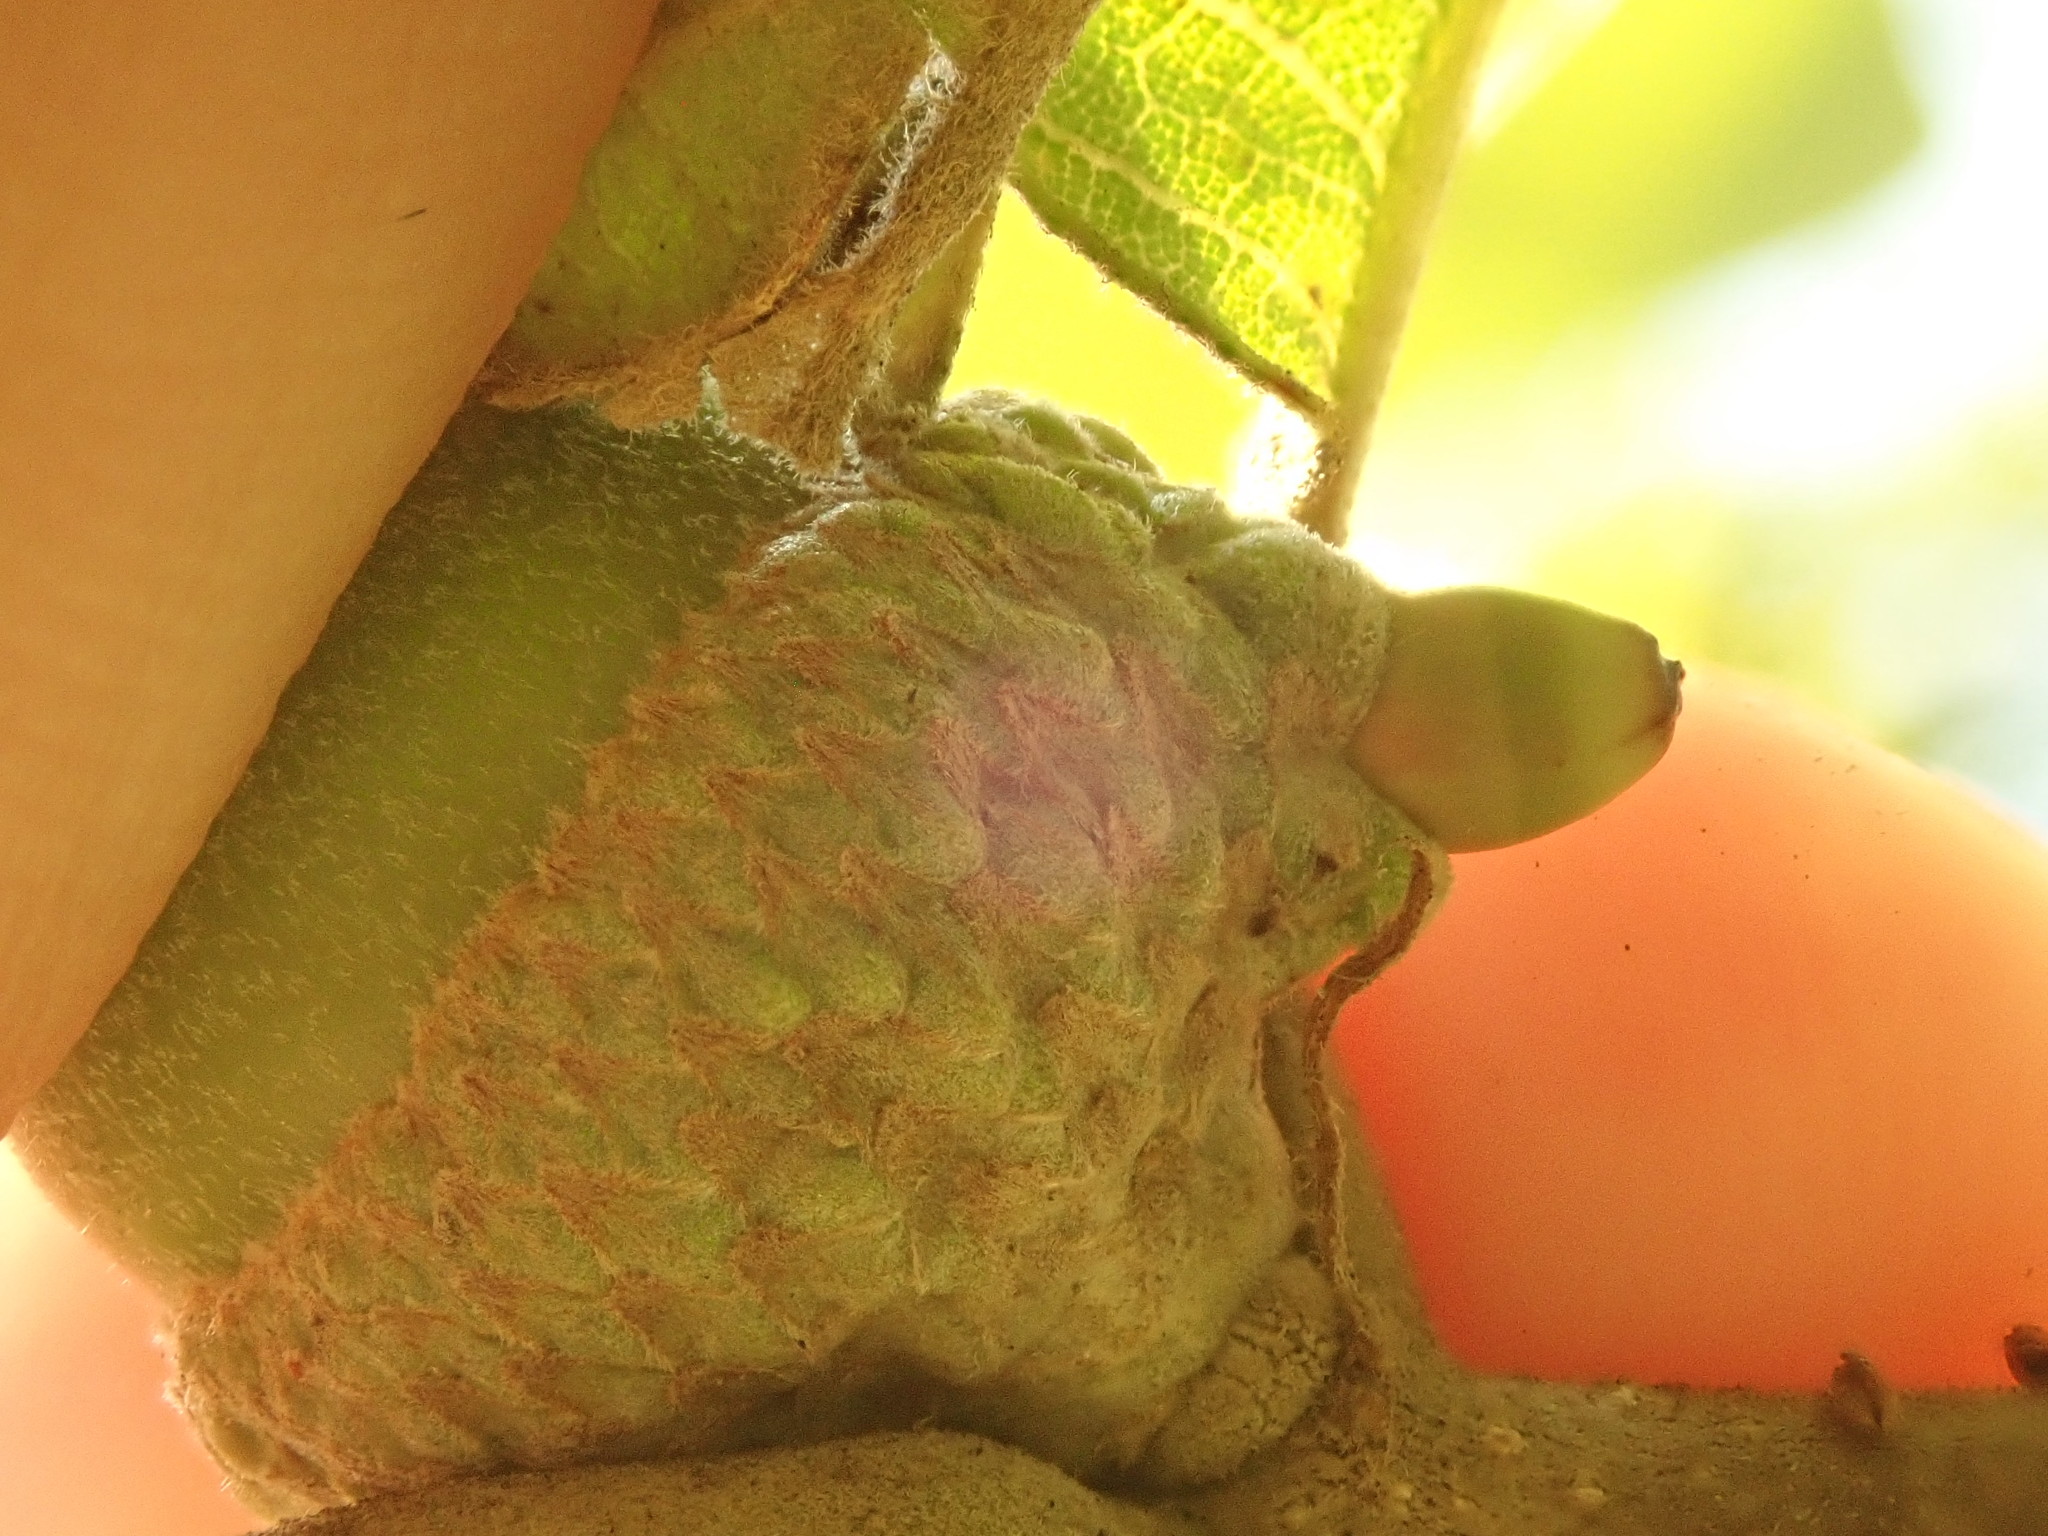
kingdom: Animalia
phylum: Arthropoda
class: Insecta
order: Hymenoptera
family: Cynipidae
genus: Callirhytis
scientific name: Callirhytis glandium
